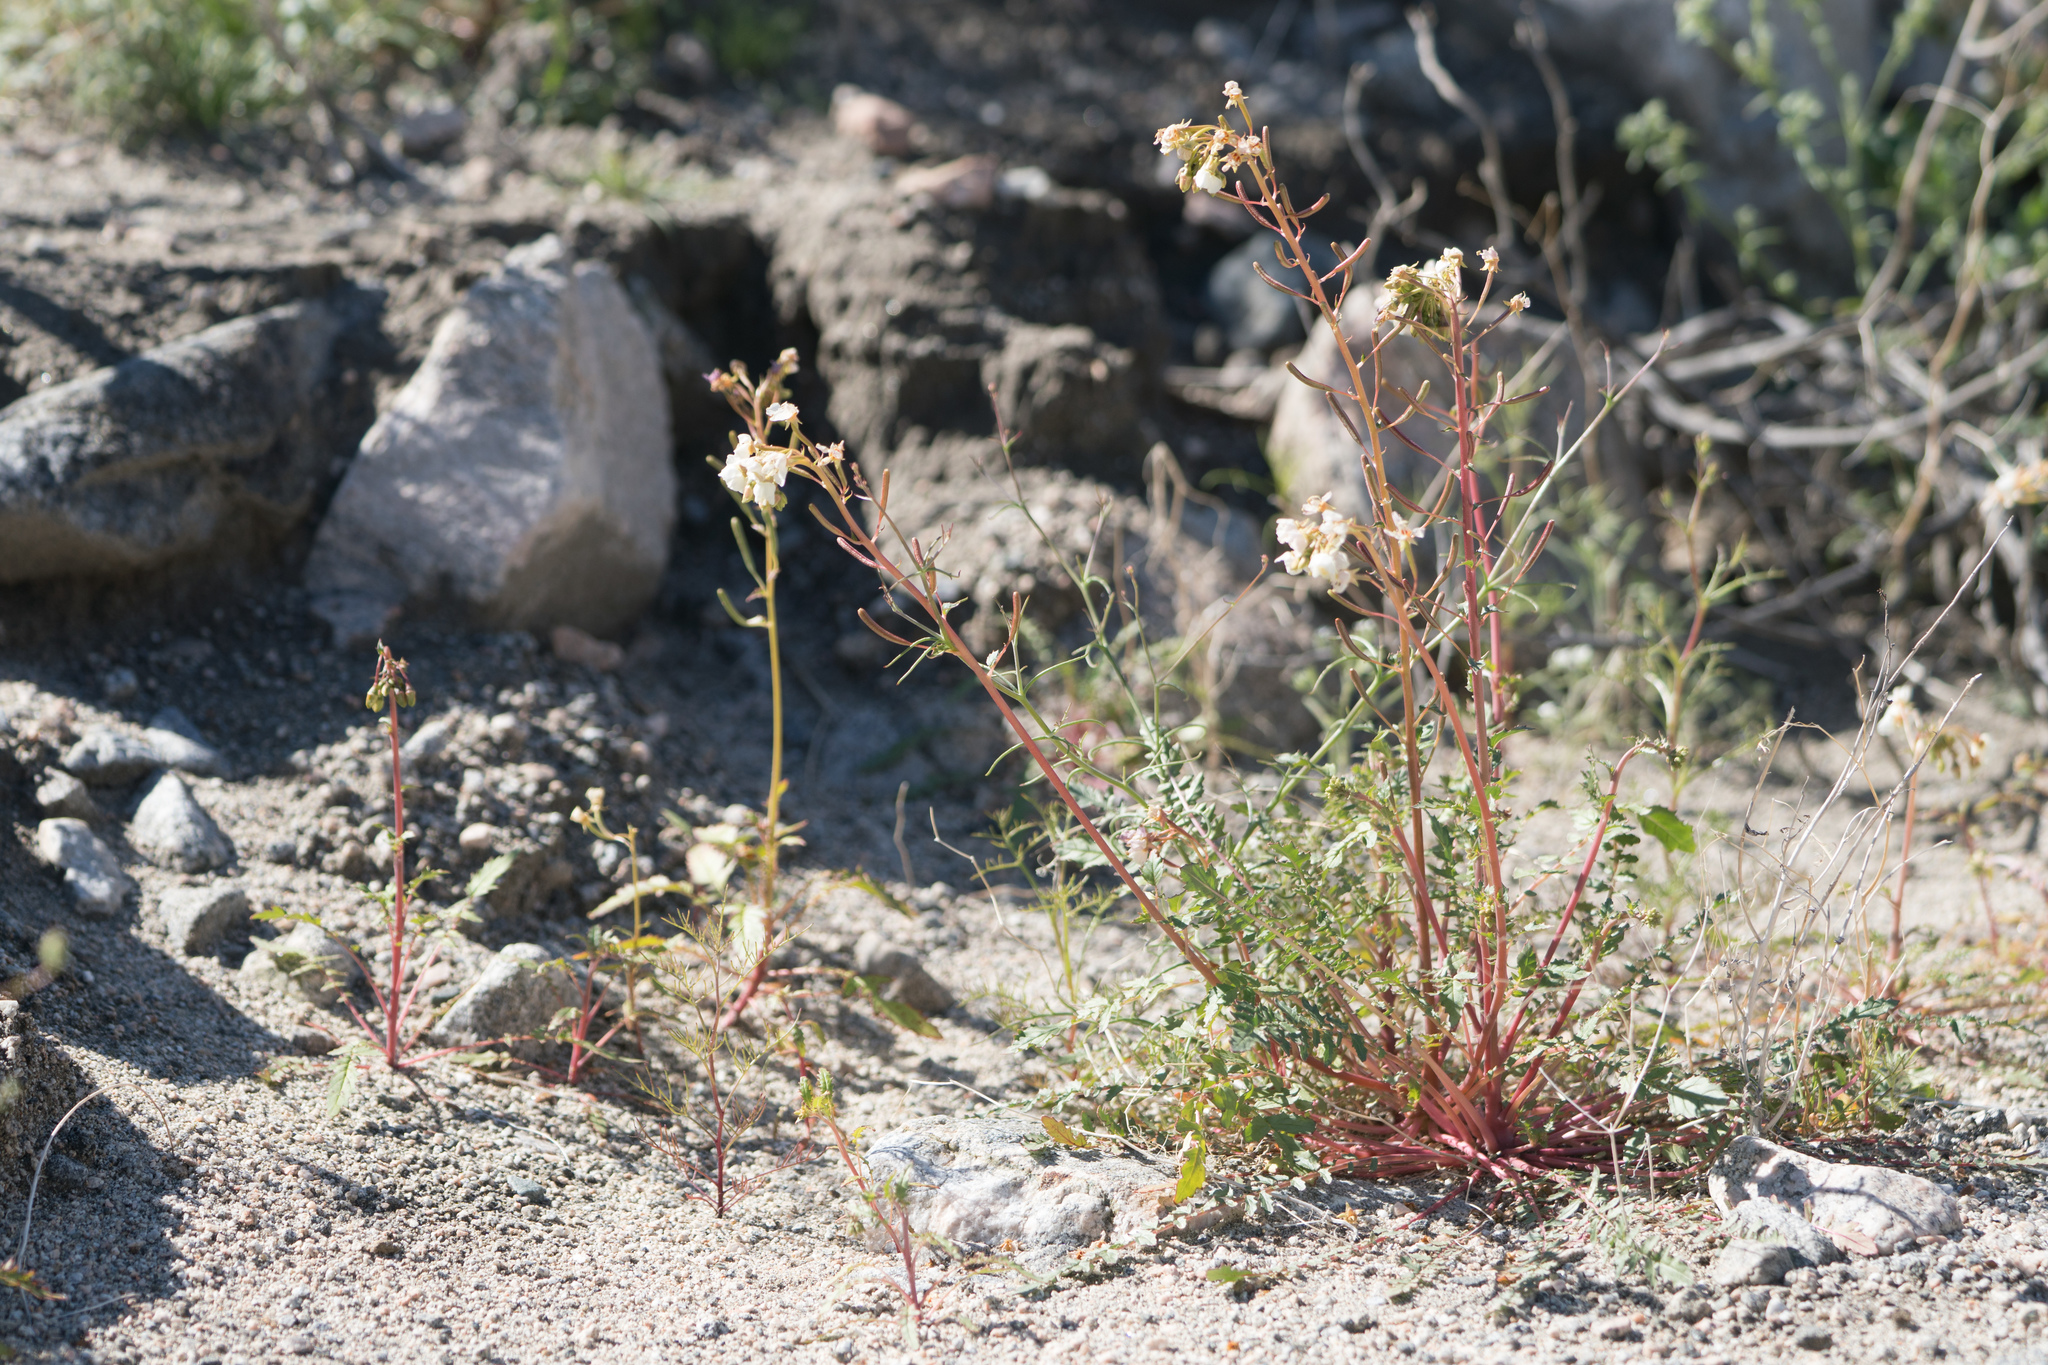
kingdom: Plantae
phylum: Tracheophyta
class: Magnoliopsida
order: Myrtales
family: Onagraceae
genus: Chylismia
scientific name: Chylismia claviformis
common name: Browneyes
